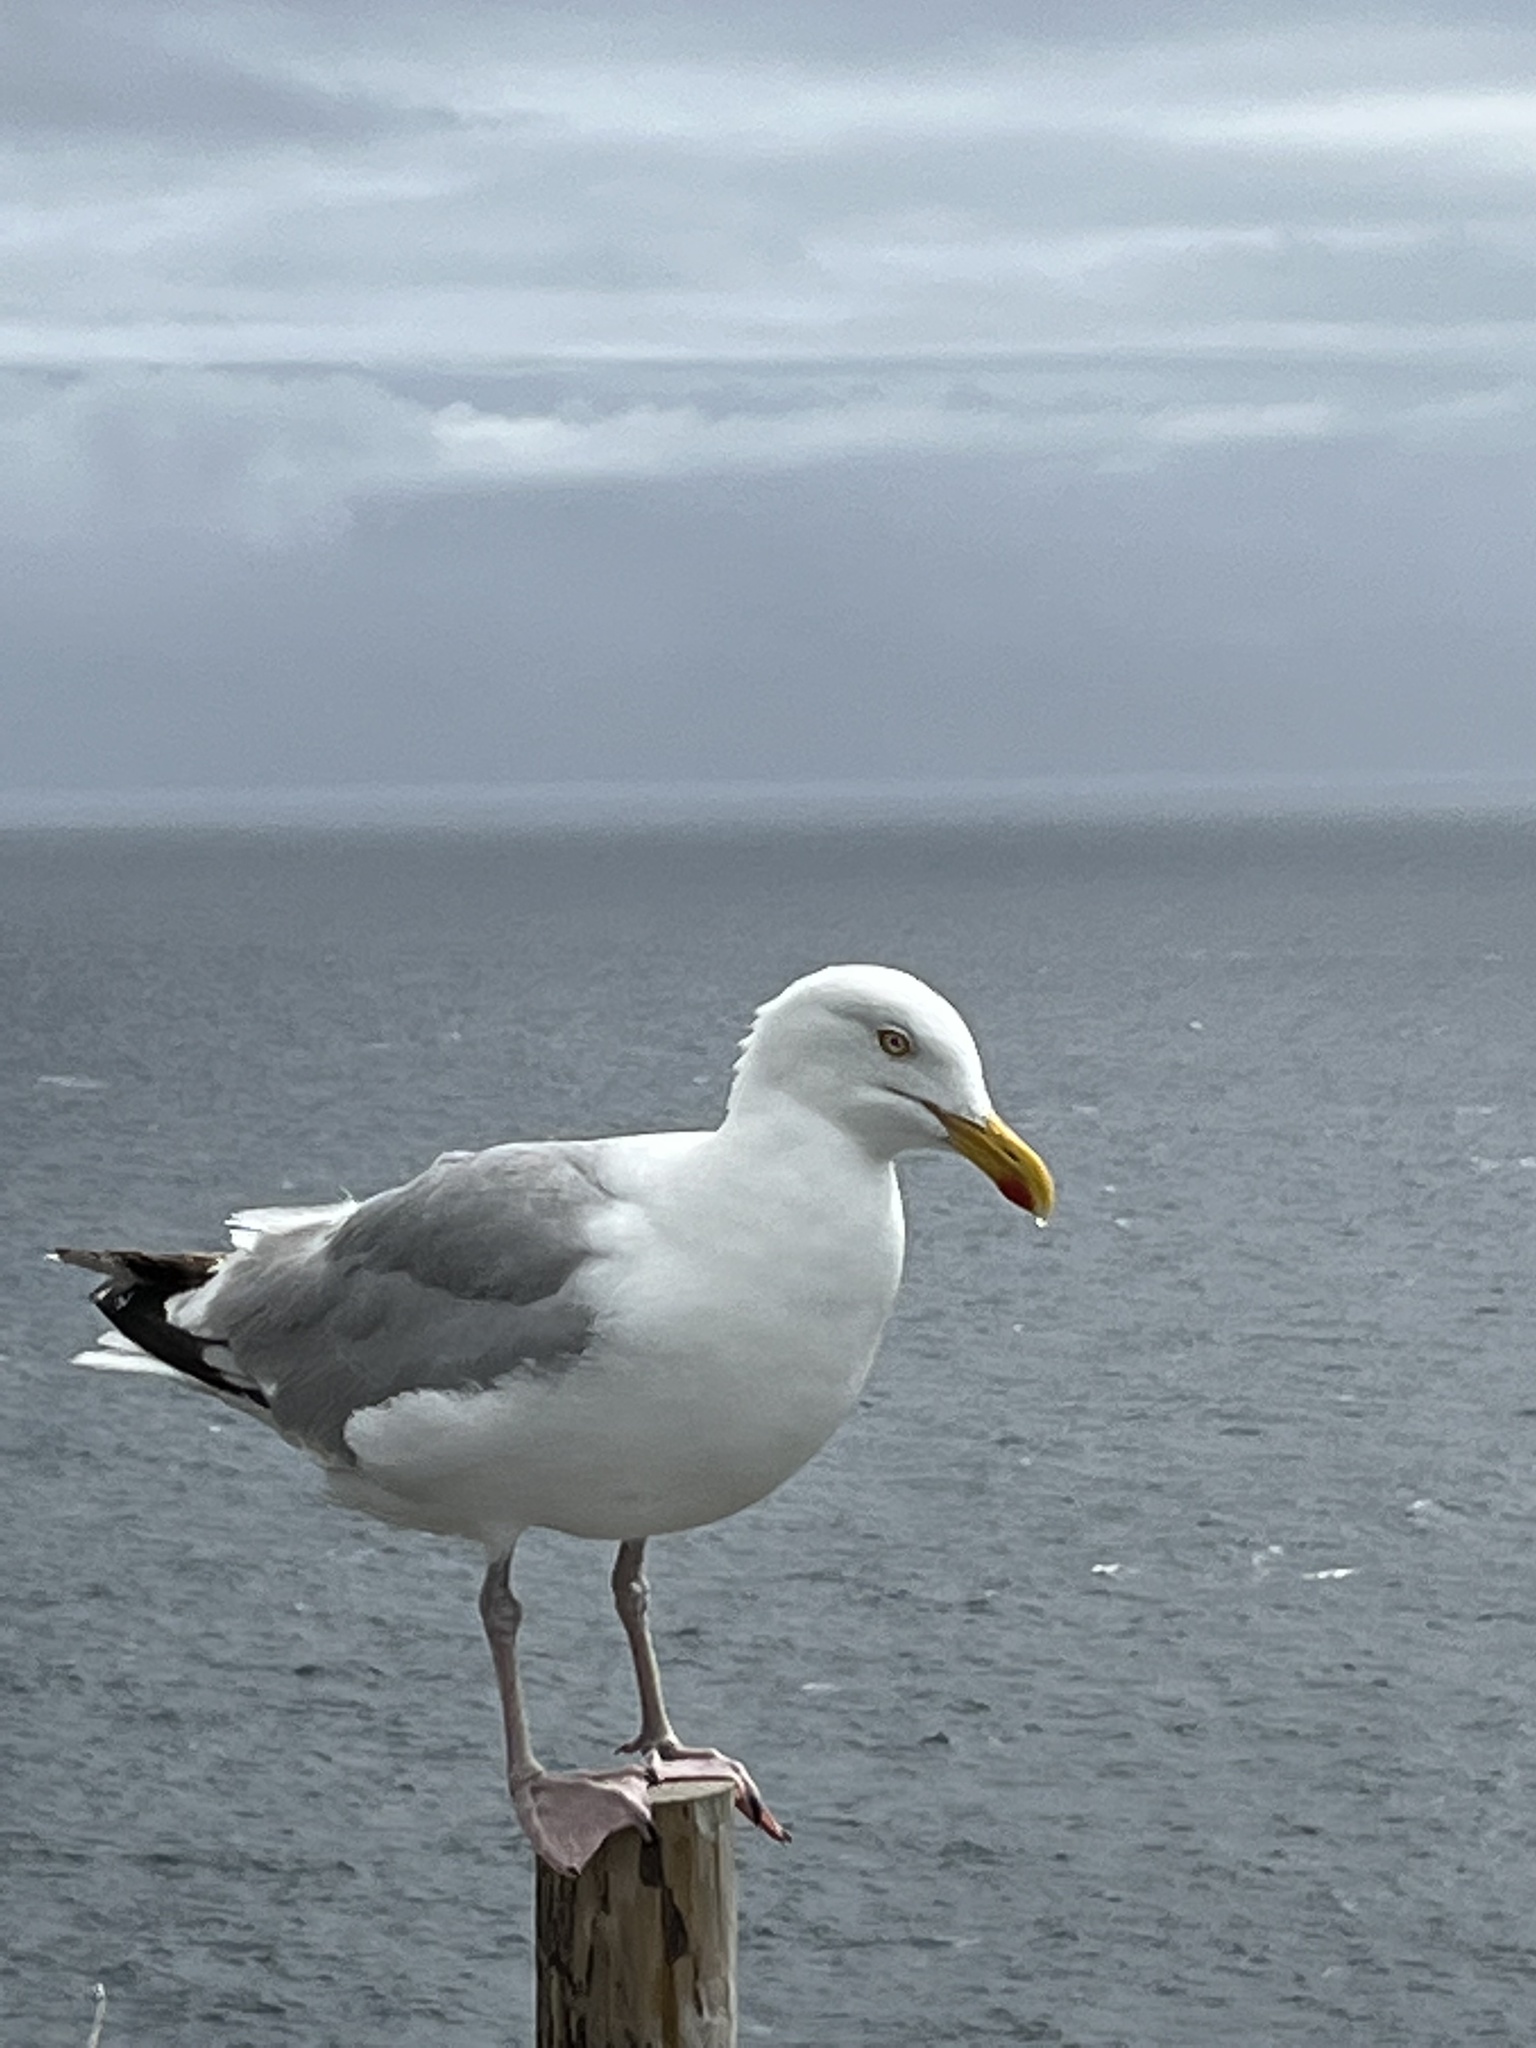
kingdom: Animalia
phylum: Chordata
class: Aves
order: Charadriiformes
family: Laridae
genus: Larus
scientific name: Larus argentatus
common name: Herring gull
